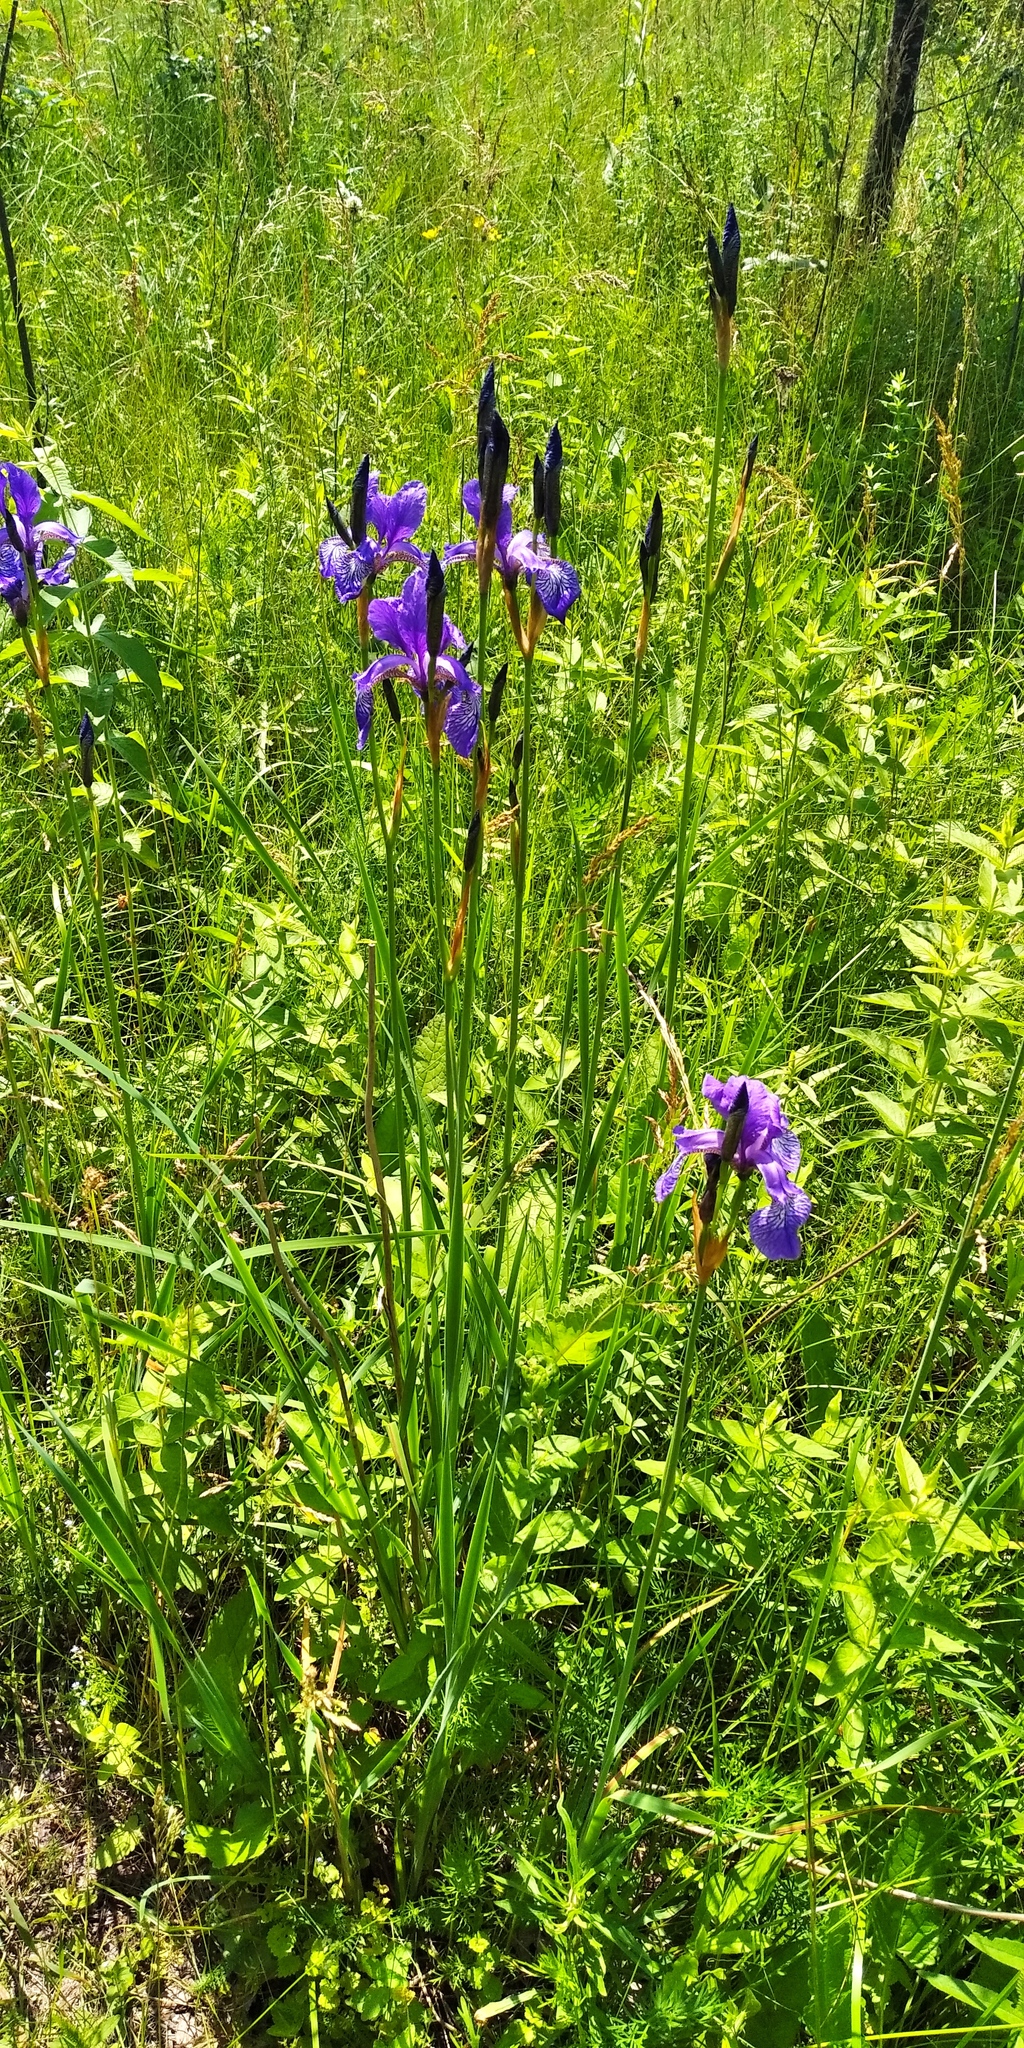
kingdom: Plantae
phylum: Tracheophyta
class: Liliopsida
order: Asparagales
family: Iridaceae
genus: Iris
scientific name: Iris sibirica
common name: Siberian iris
